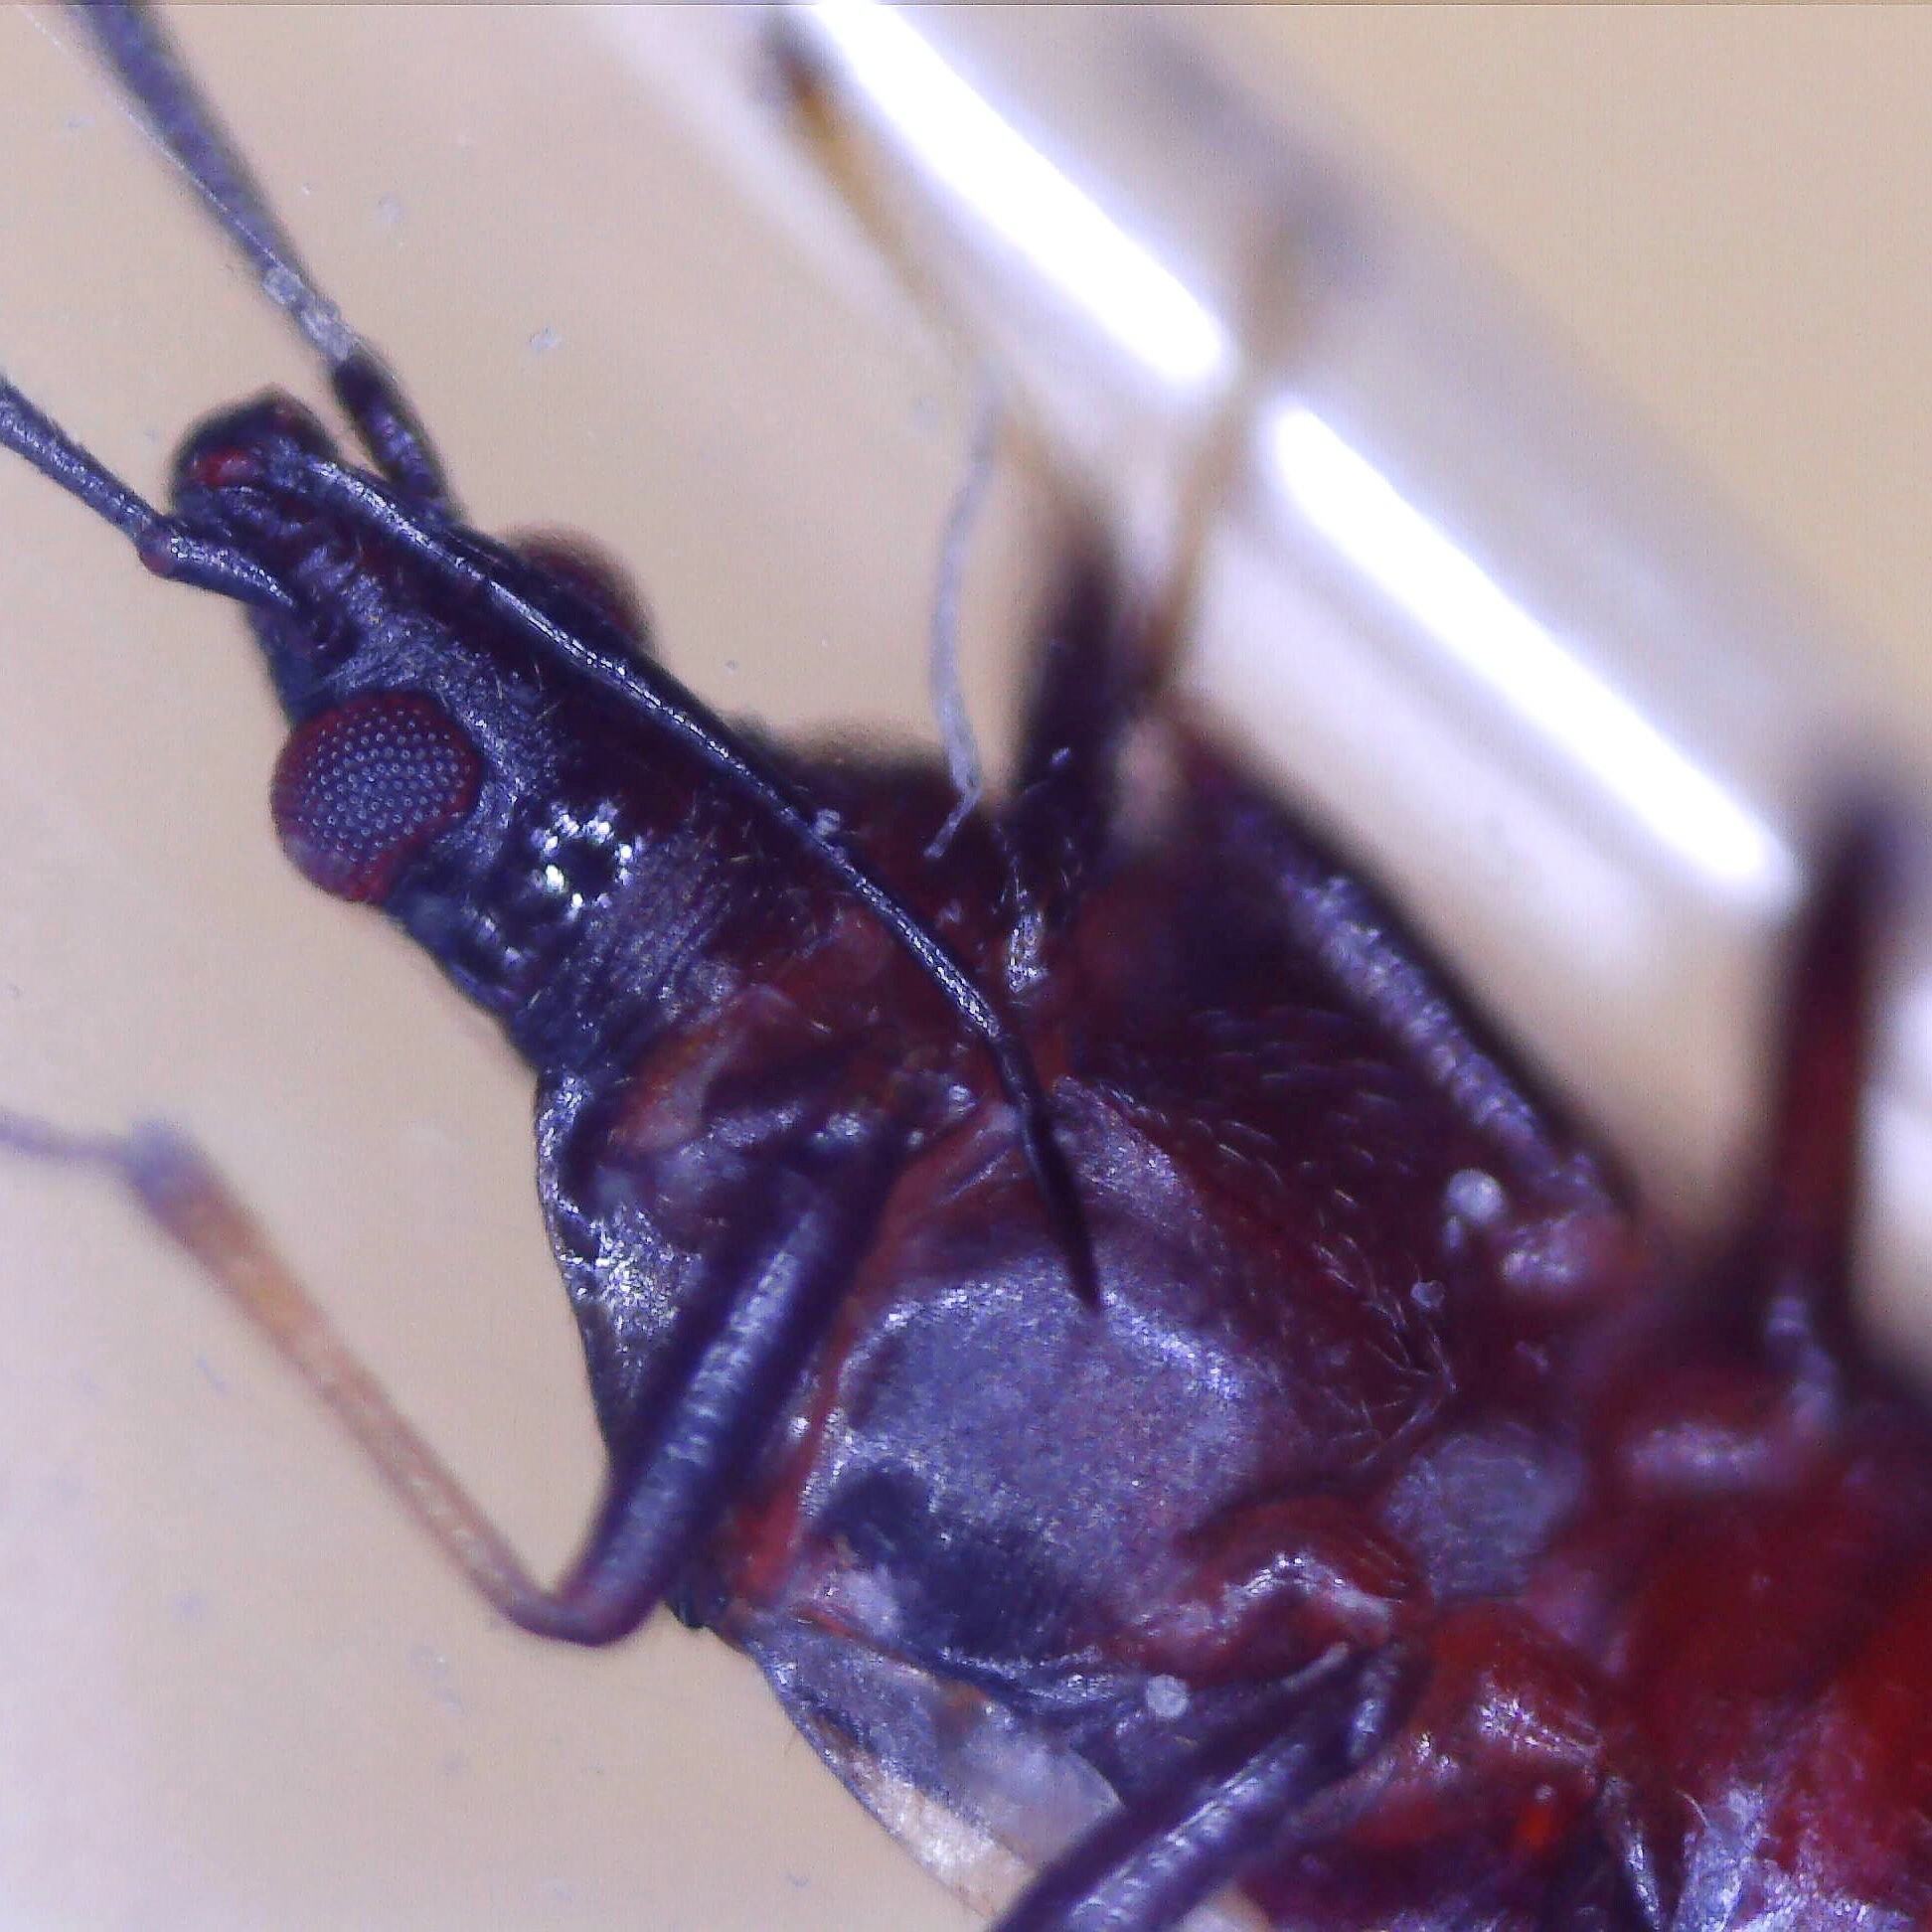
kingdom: Animalia
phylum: Arthropoda
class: Insecta
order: Hemiptera
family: Anthocoridae
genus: Temnostethus
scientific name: Temnostethus pusillus
